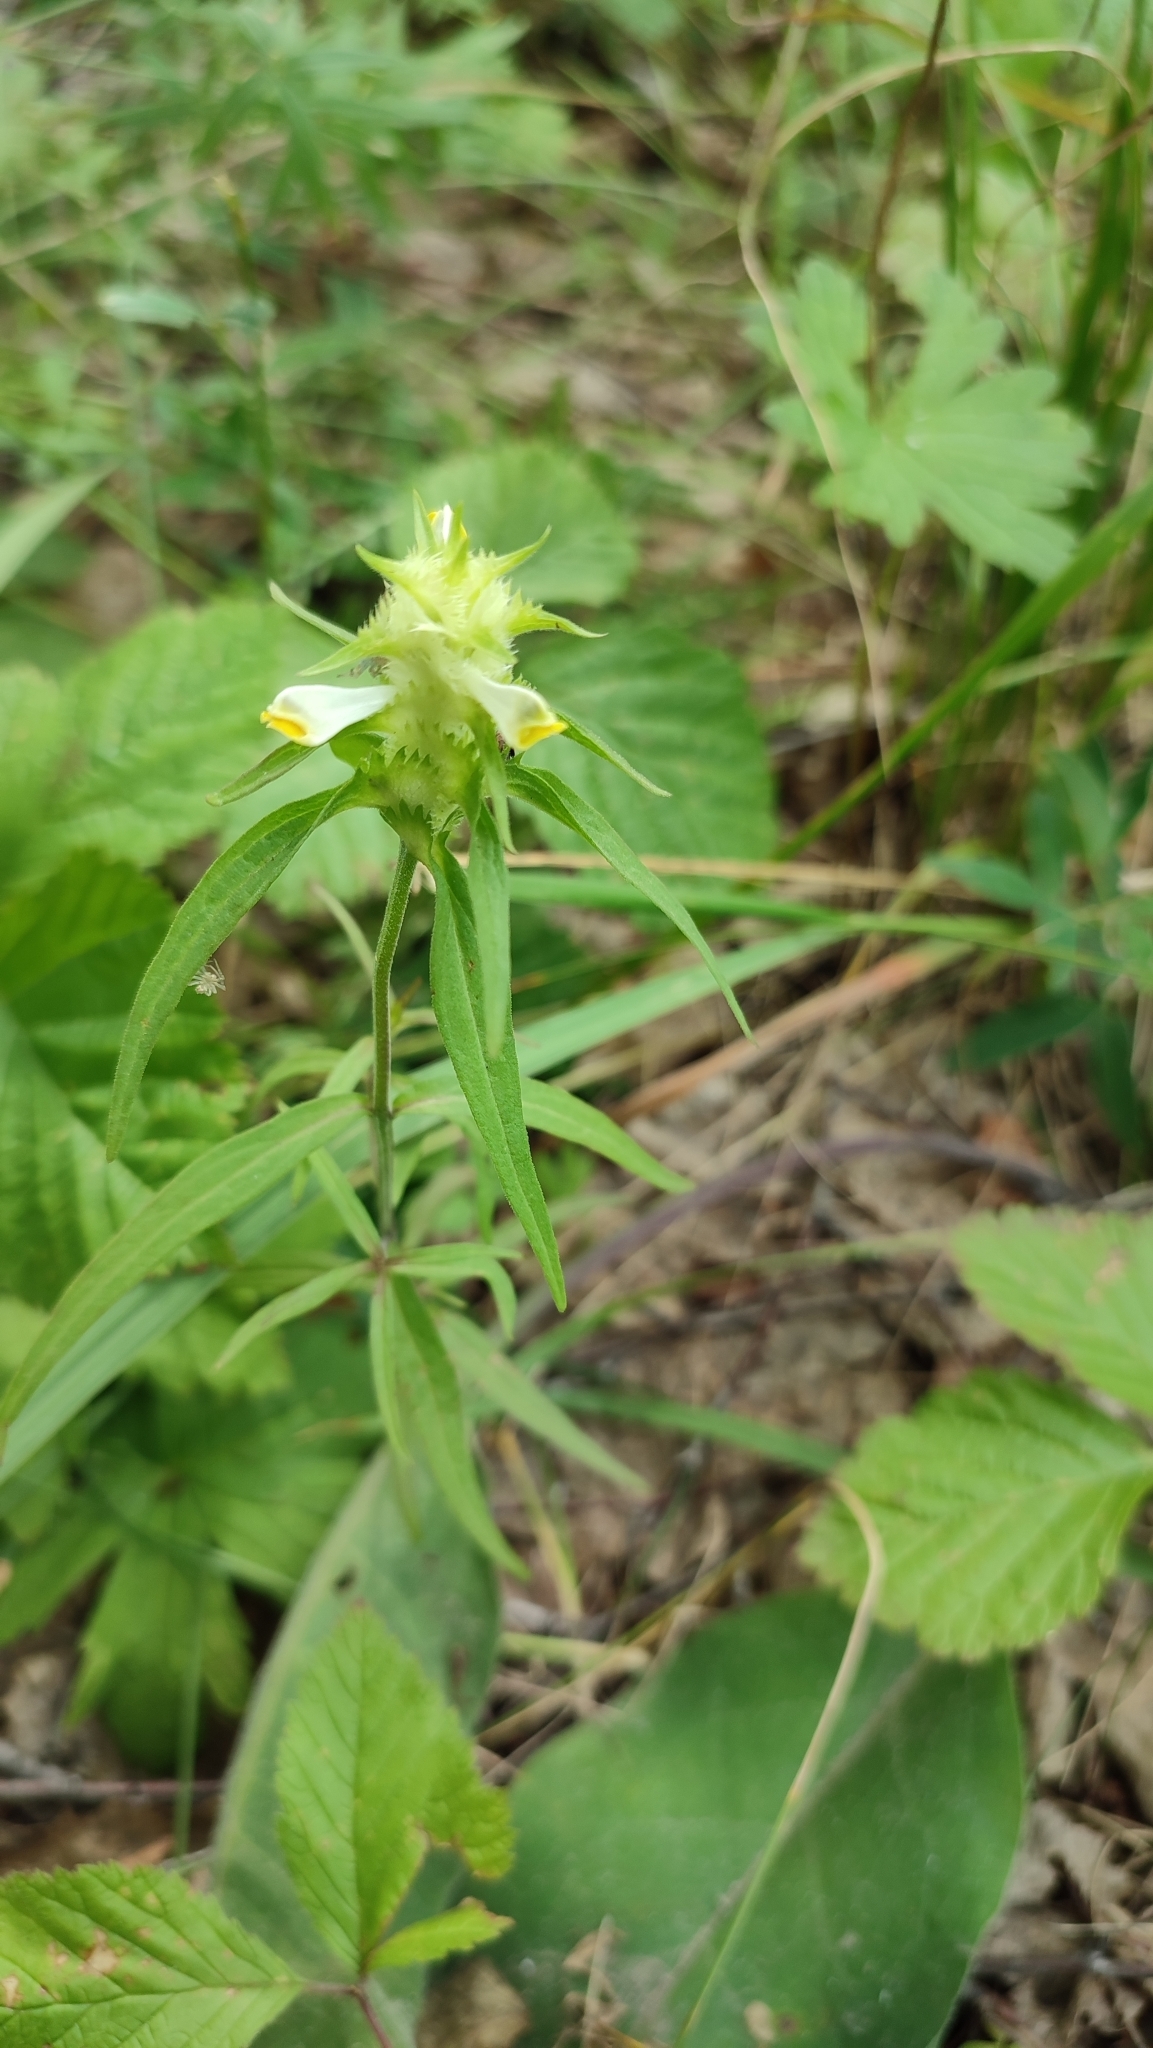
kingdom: Plantae
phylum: Tracheophyta
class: Magnoliopsida
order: Lamiales
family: Orobanchaceae
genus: Melampyrum
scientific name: Melampyrum cristatum
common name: Crested cow-wheat
